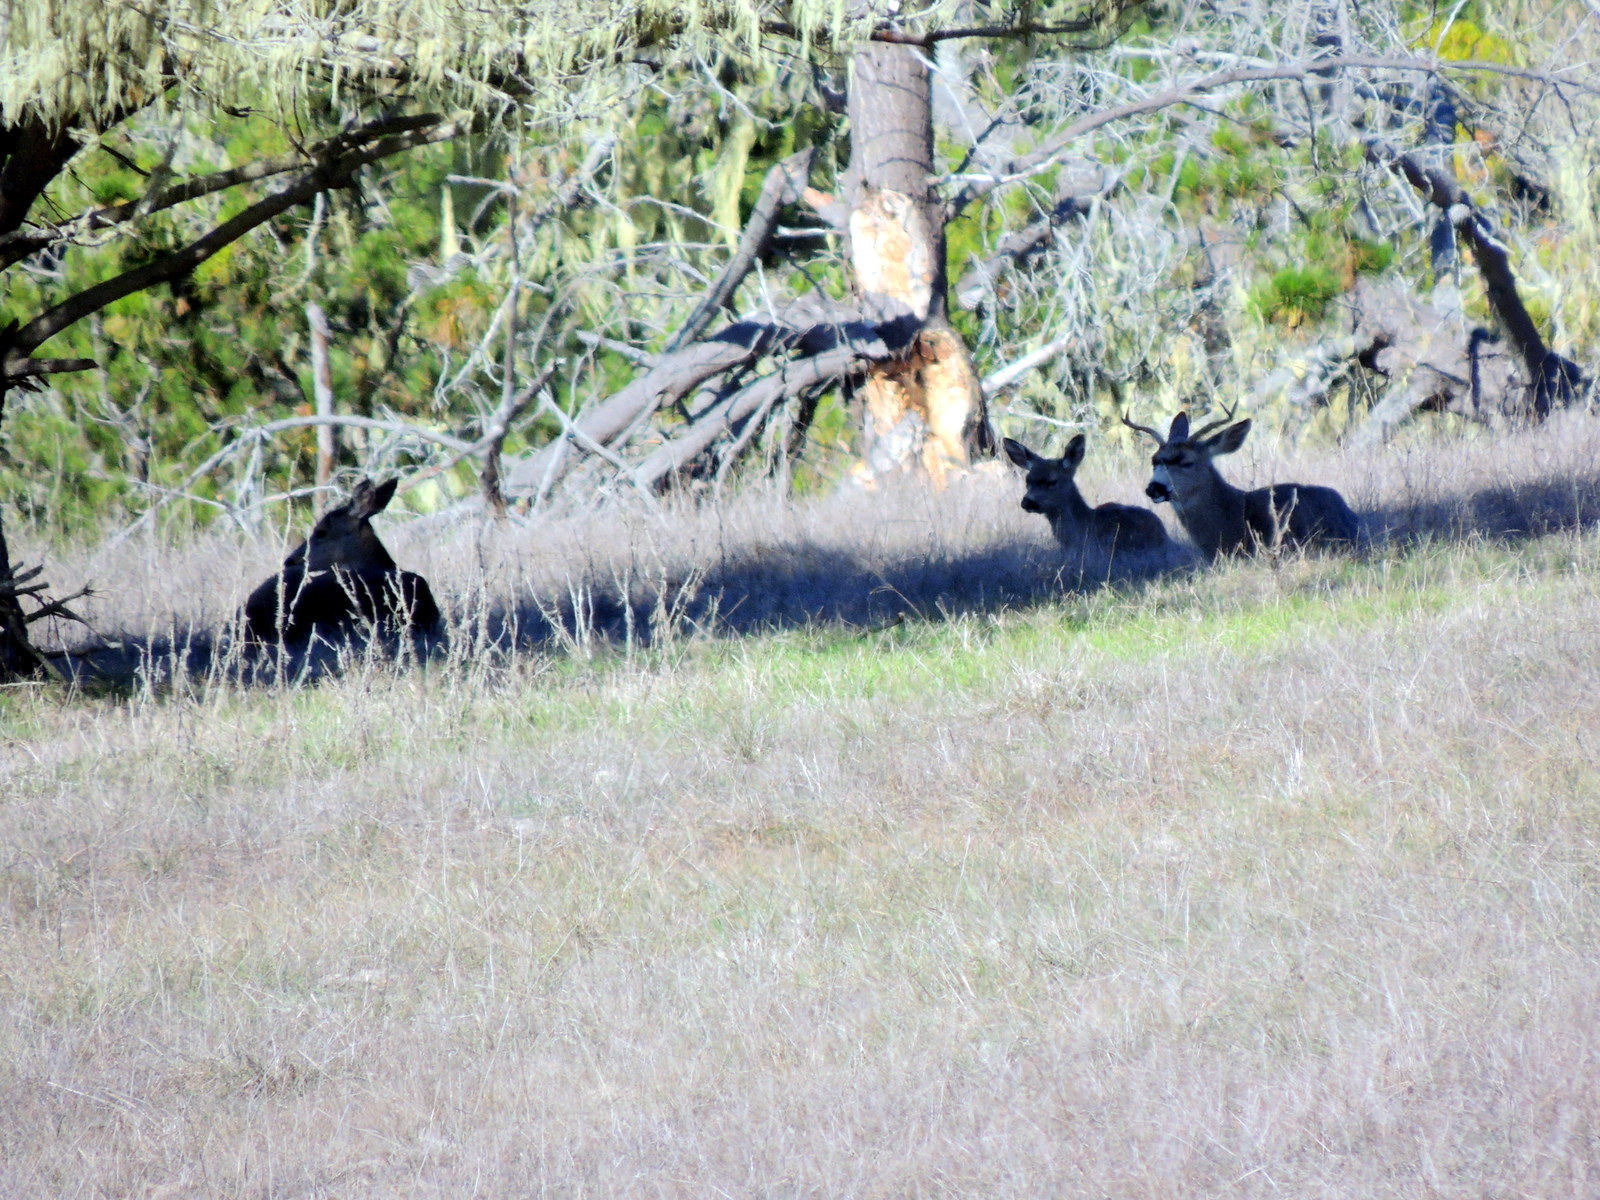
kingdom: Animalia
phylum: Chordata
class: Mammalia
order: Artiodactyla
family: Cervidae
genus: Odocoileus
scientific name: Odocoileus hemionus
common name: Mule deer
